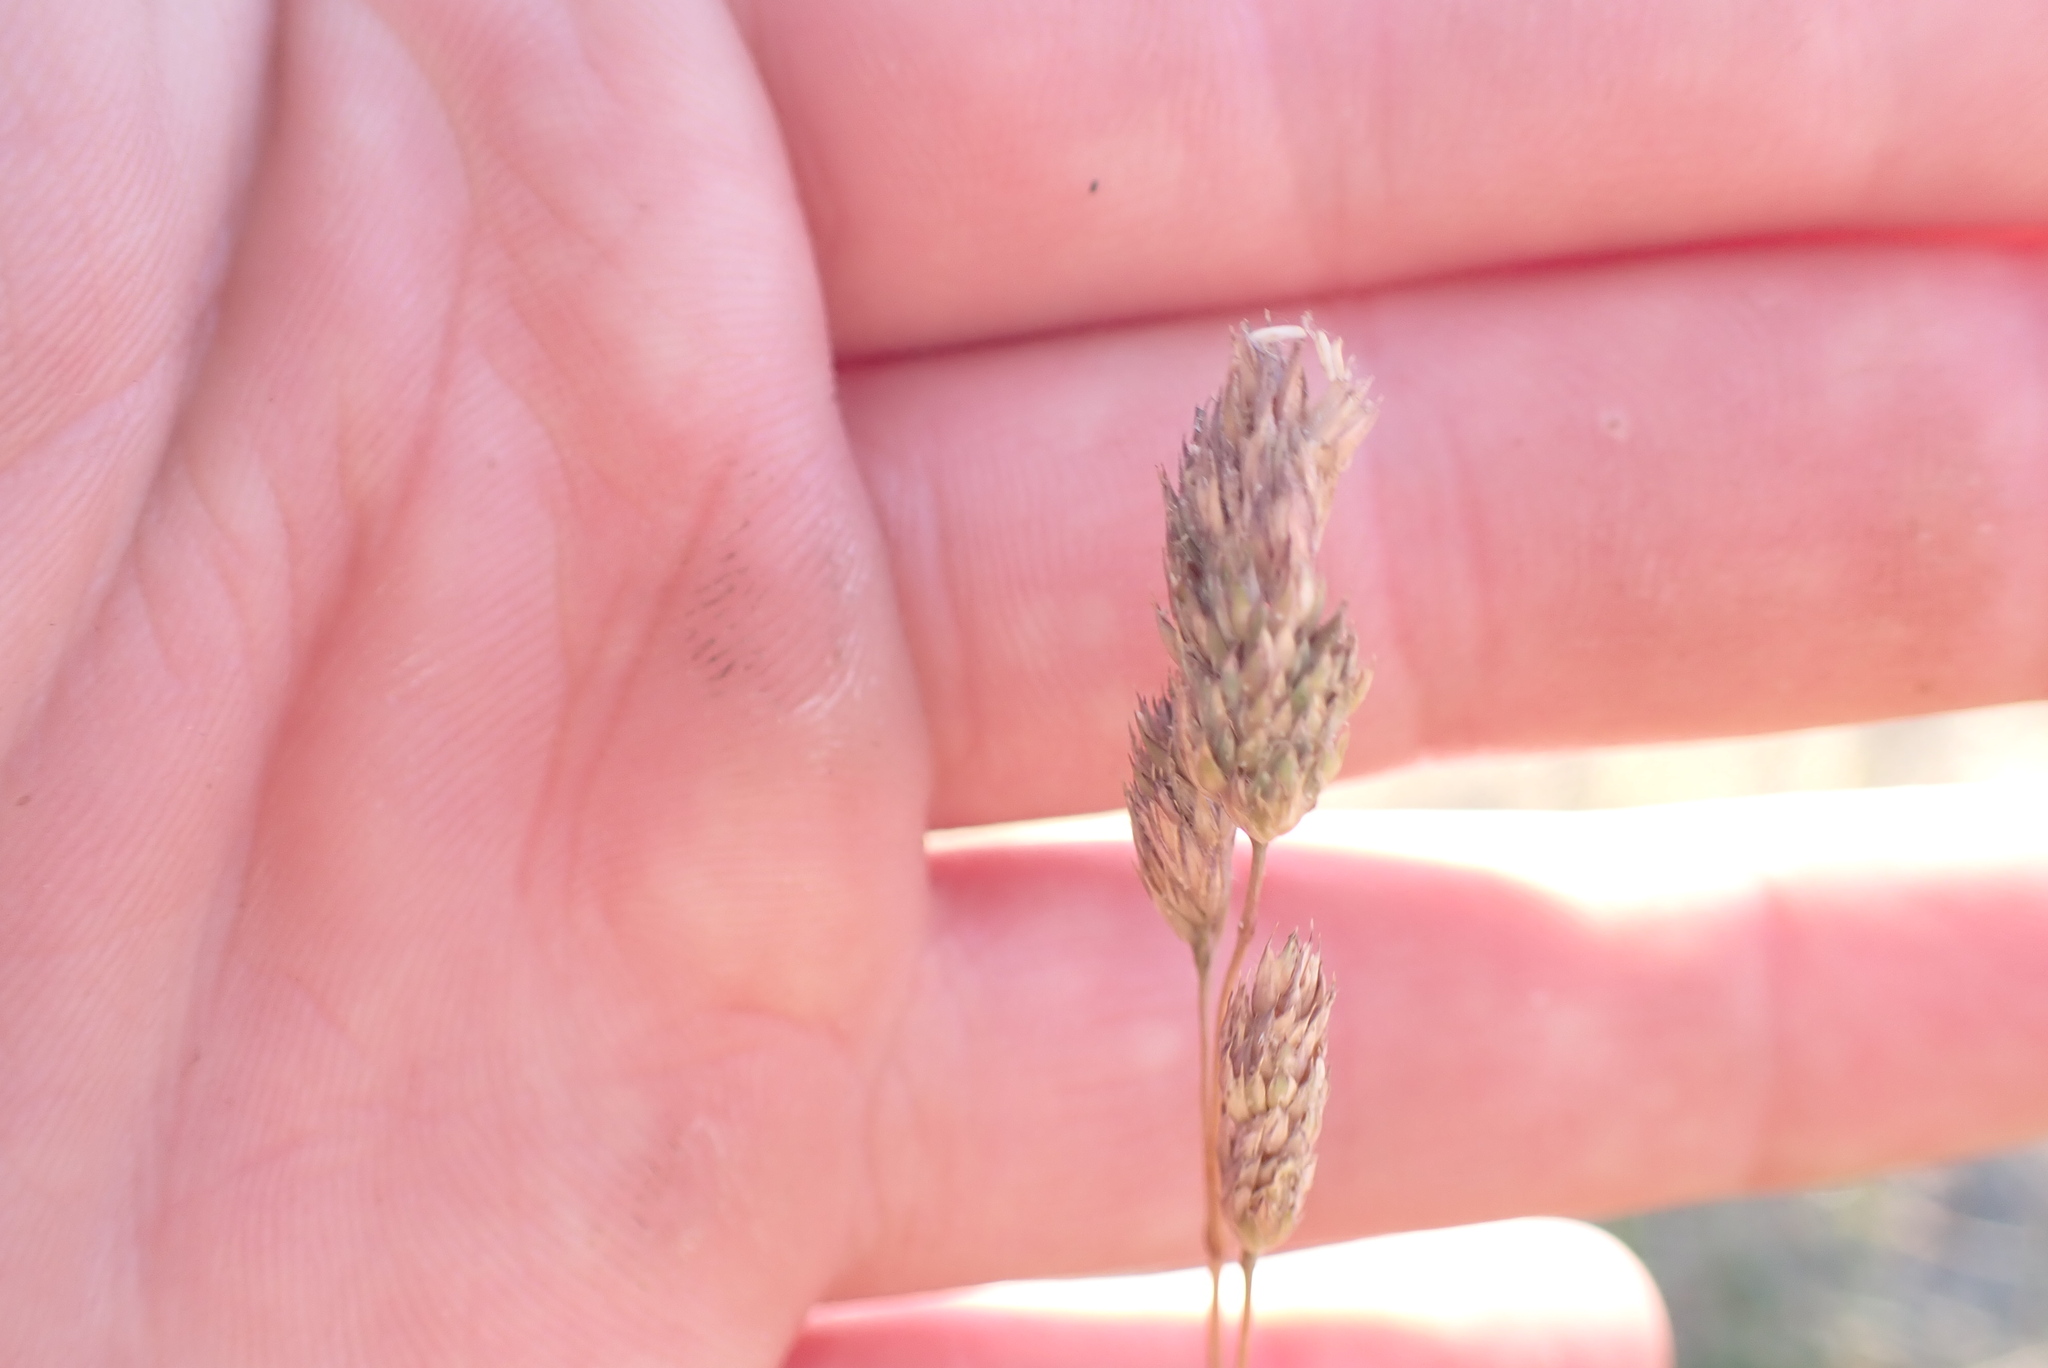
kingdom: Plantae
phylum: Tracheophyta
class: Liliopsida
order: Poales
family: Poaceae
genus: Dactylis
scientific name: Dactylis glomerata
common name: Orchardgrass
